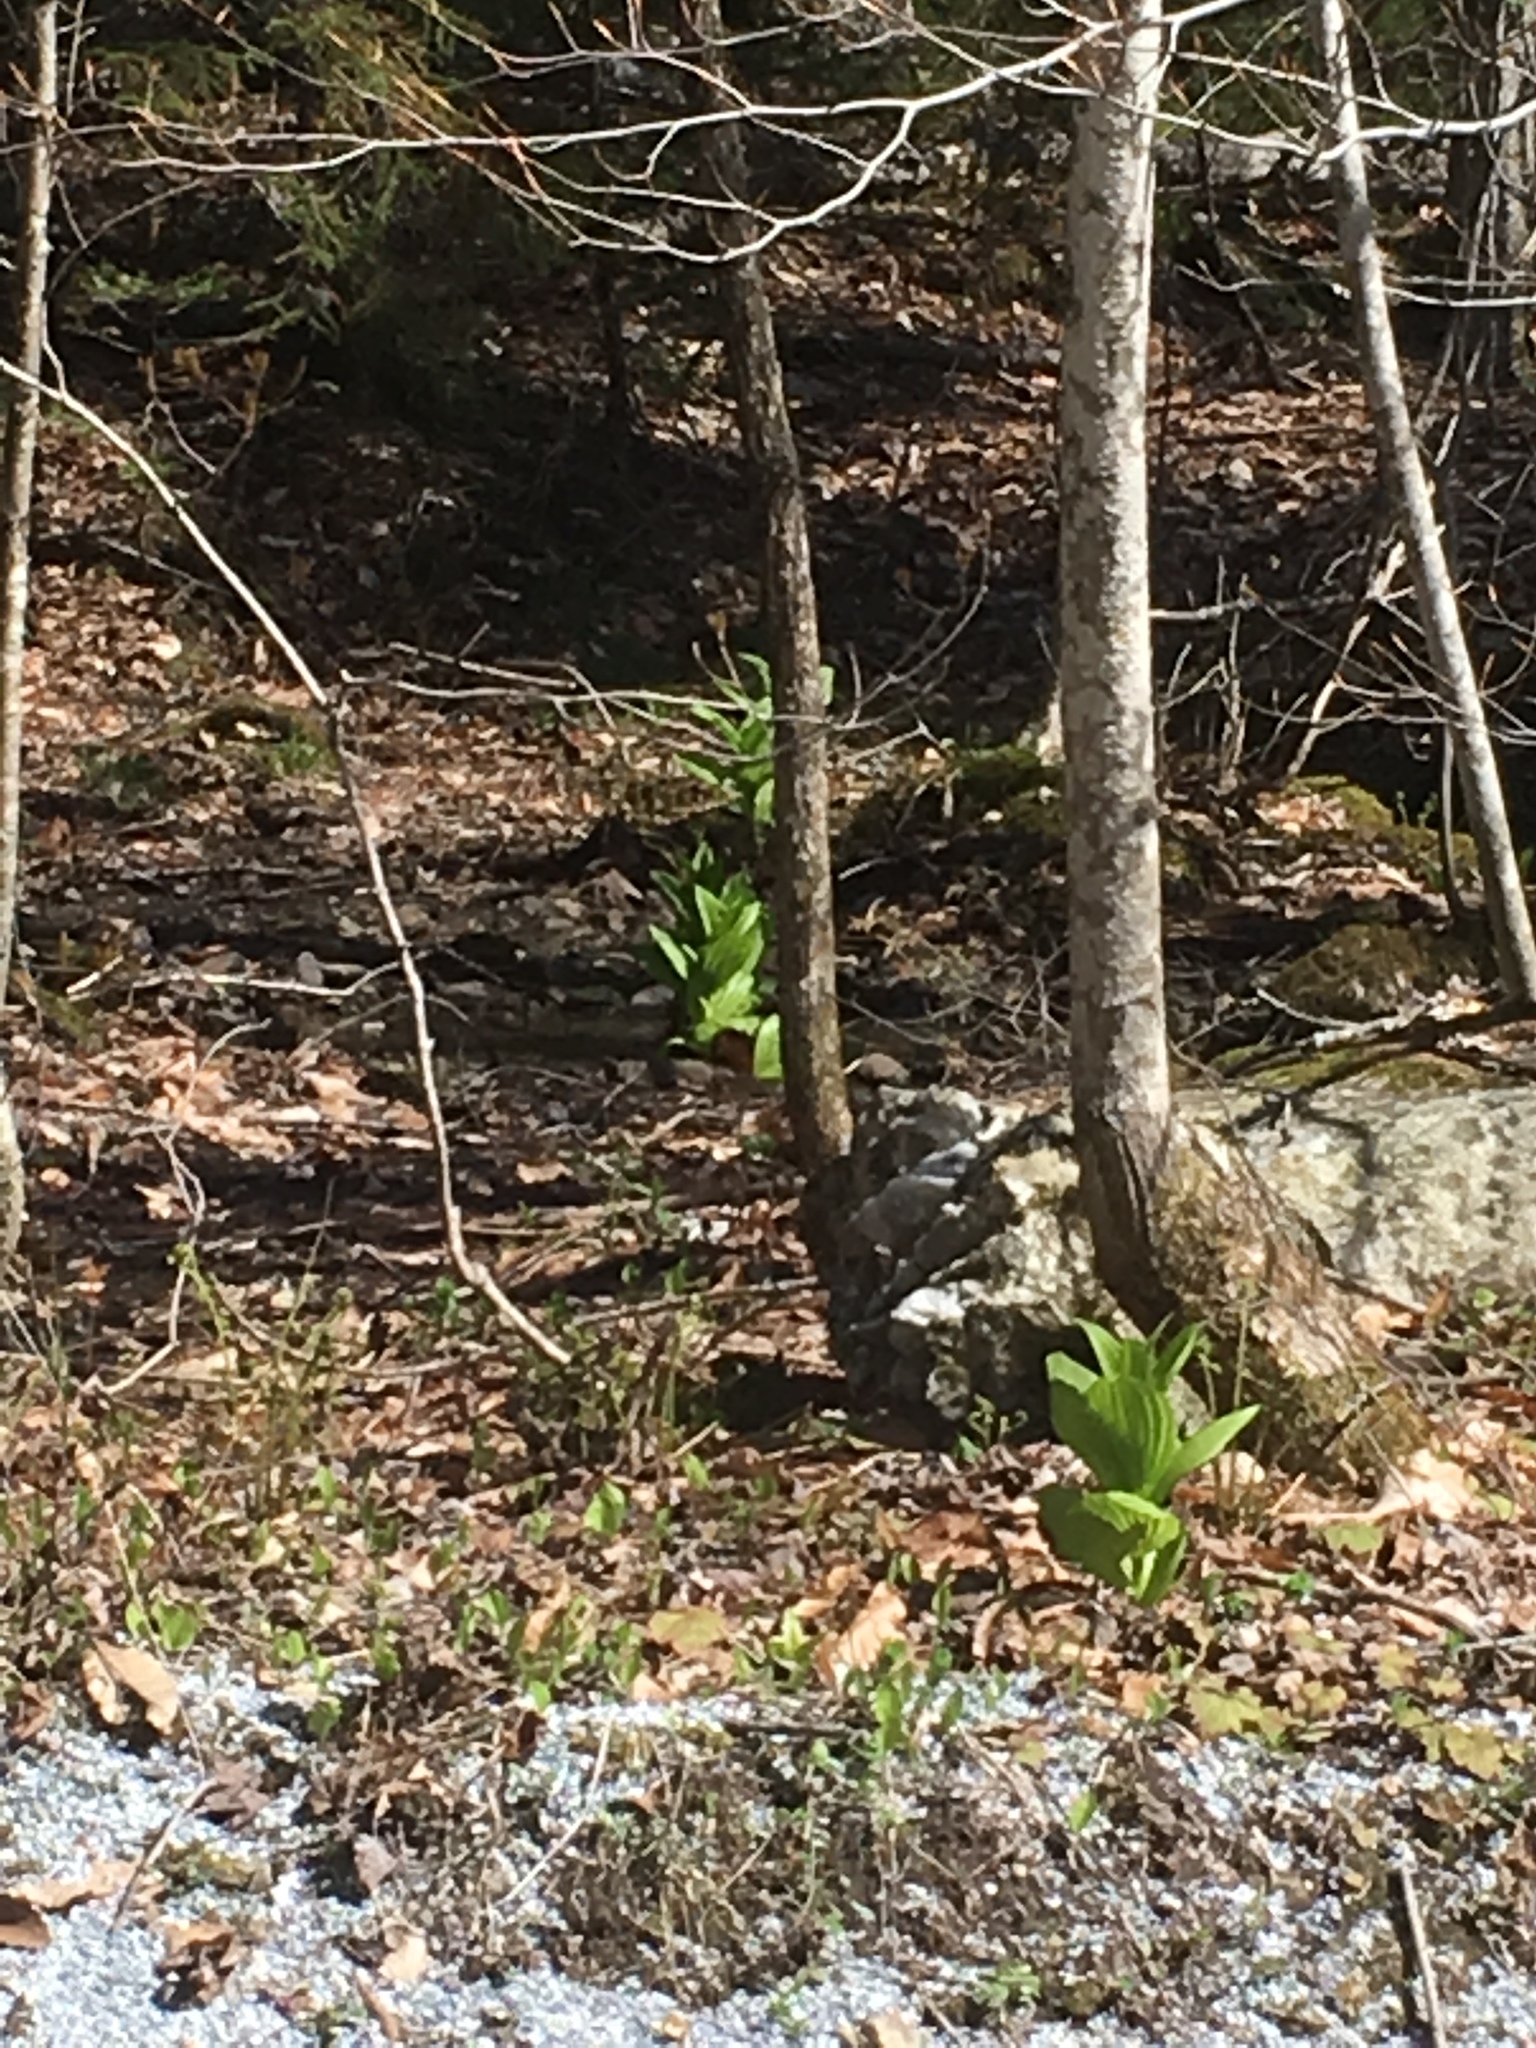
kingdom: Plantae
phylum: Tracheophyta
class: Liliopsida
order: Liliales
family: Melanthiaceae
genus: Veratrum
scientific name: Veratrum viride
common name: American false hellebore
